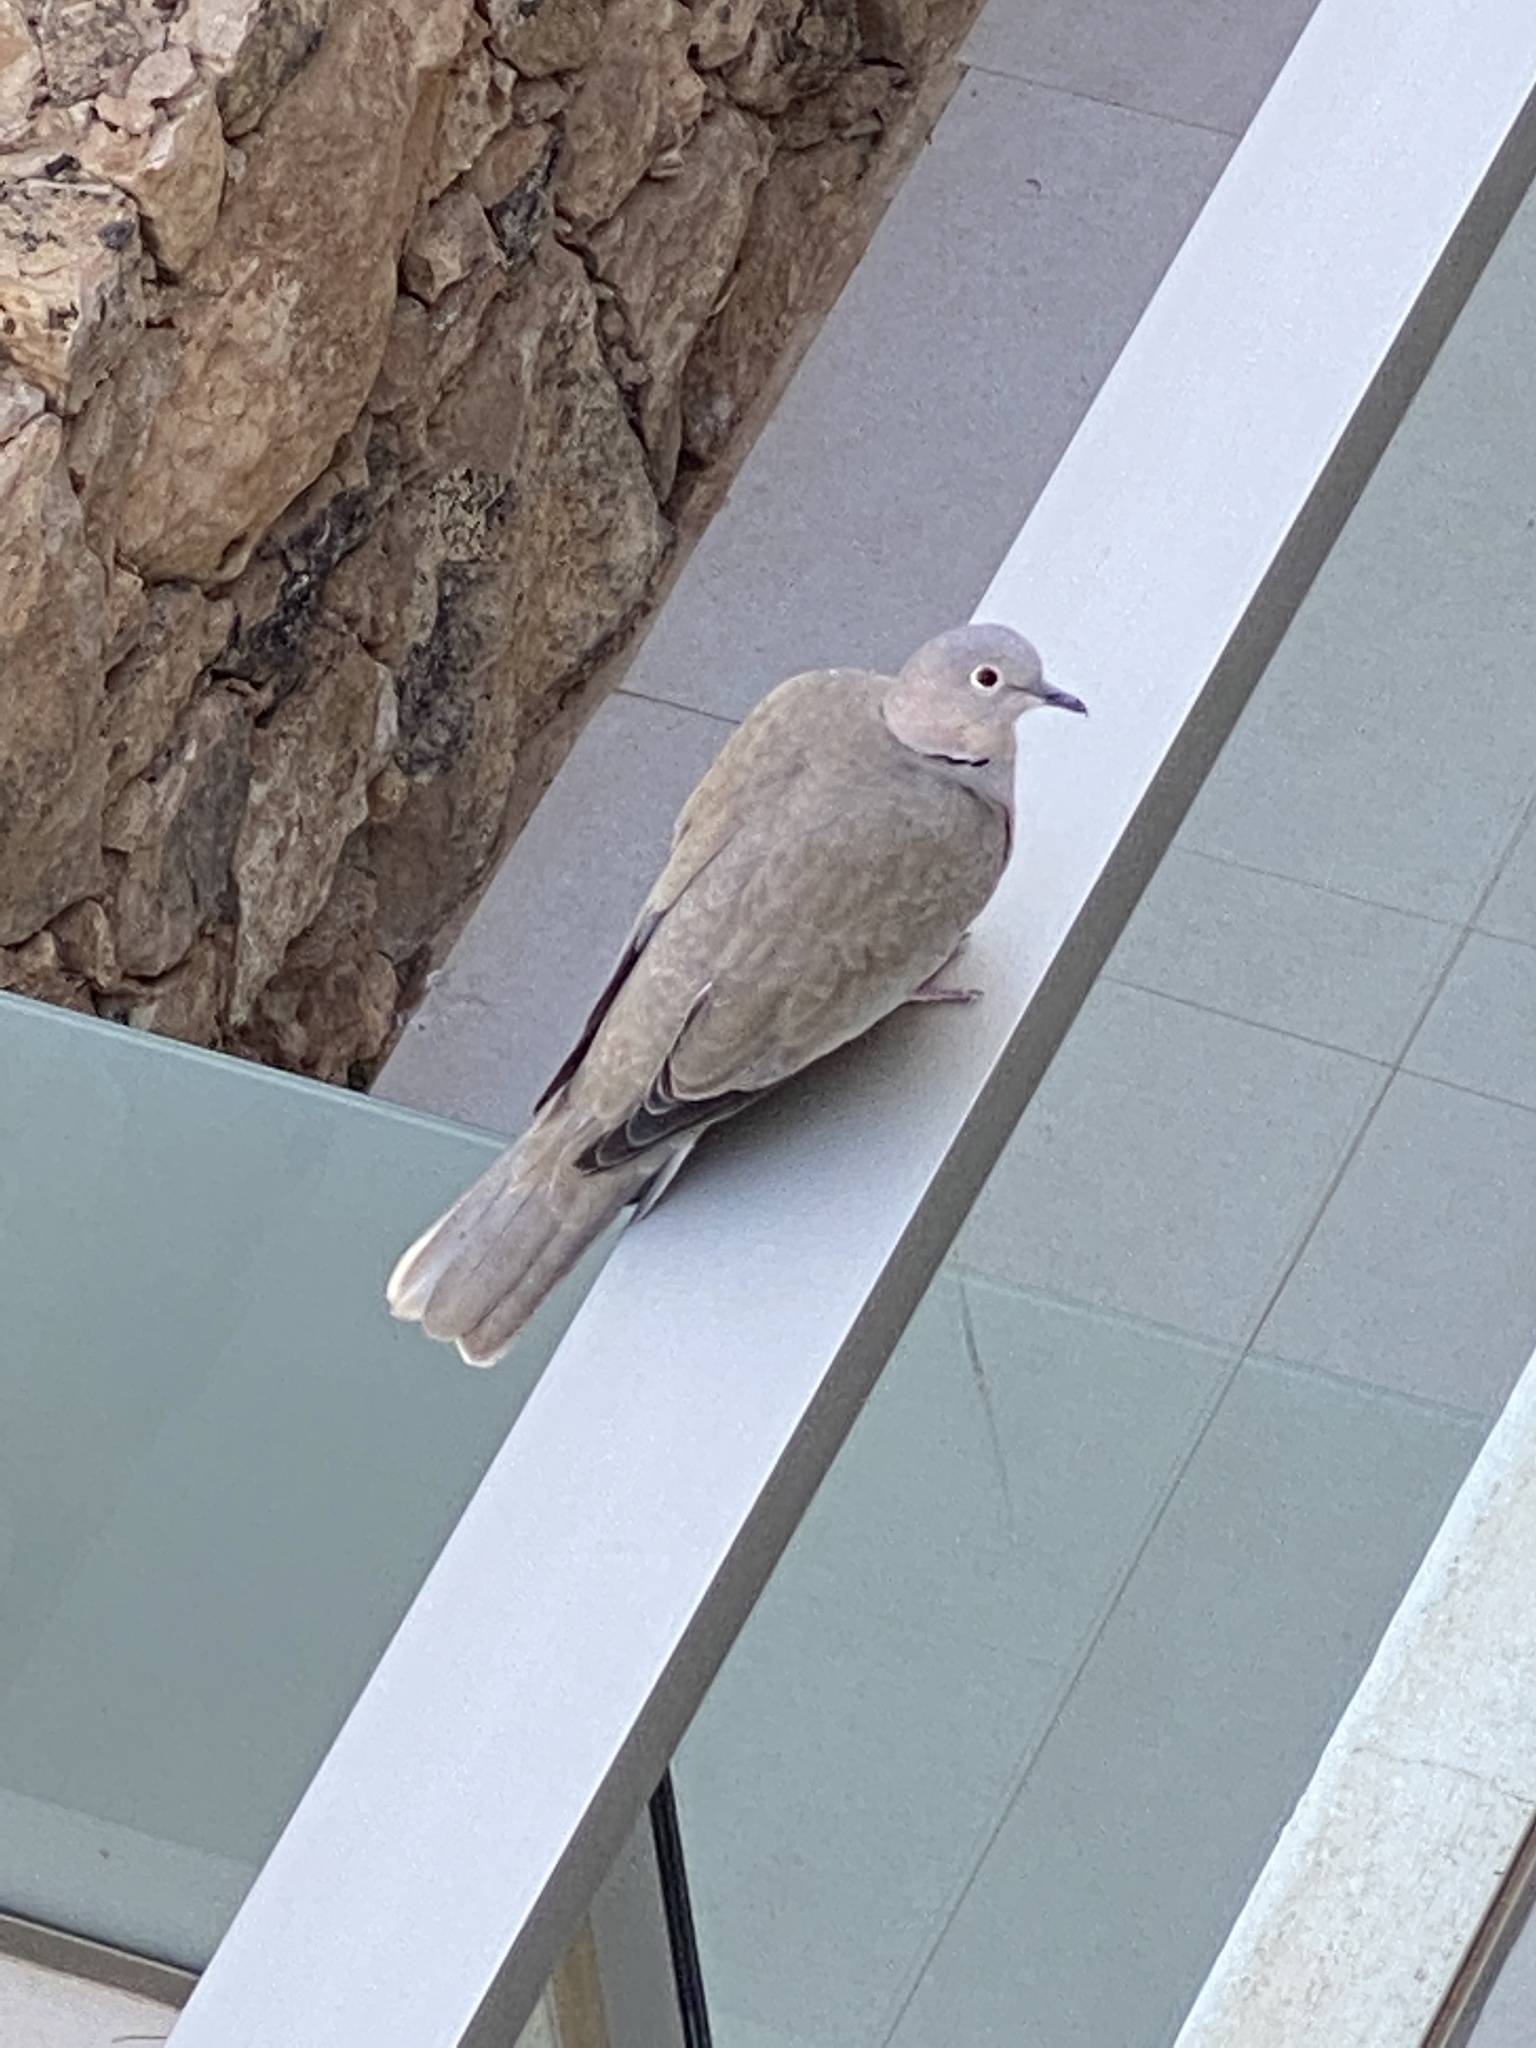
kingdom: Animalia
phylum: Chordata
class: Aves
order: Columbiformes
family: Columbidae
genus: Streptopelia
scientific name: Streptopelia decaocto
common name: Eurasian collared dove
